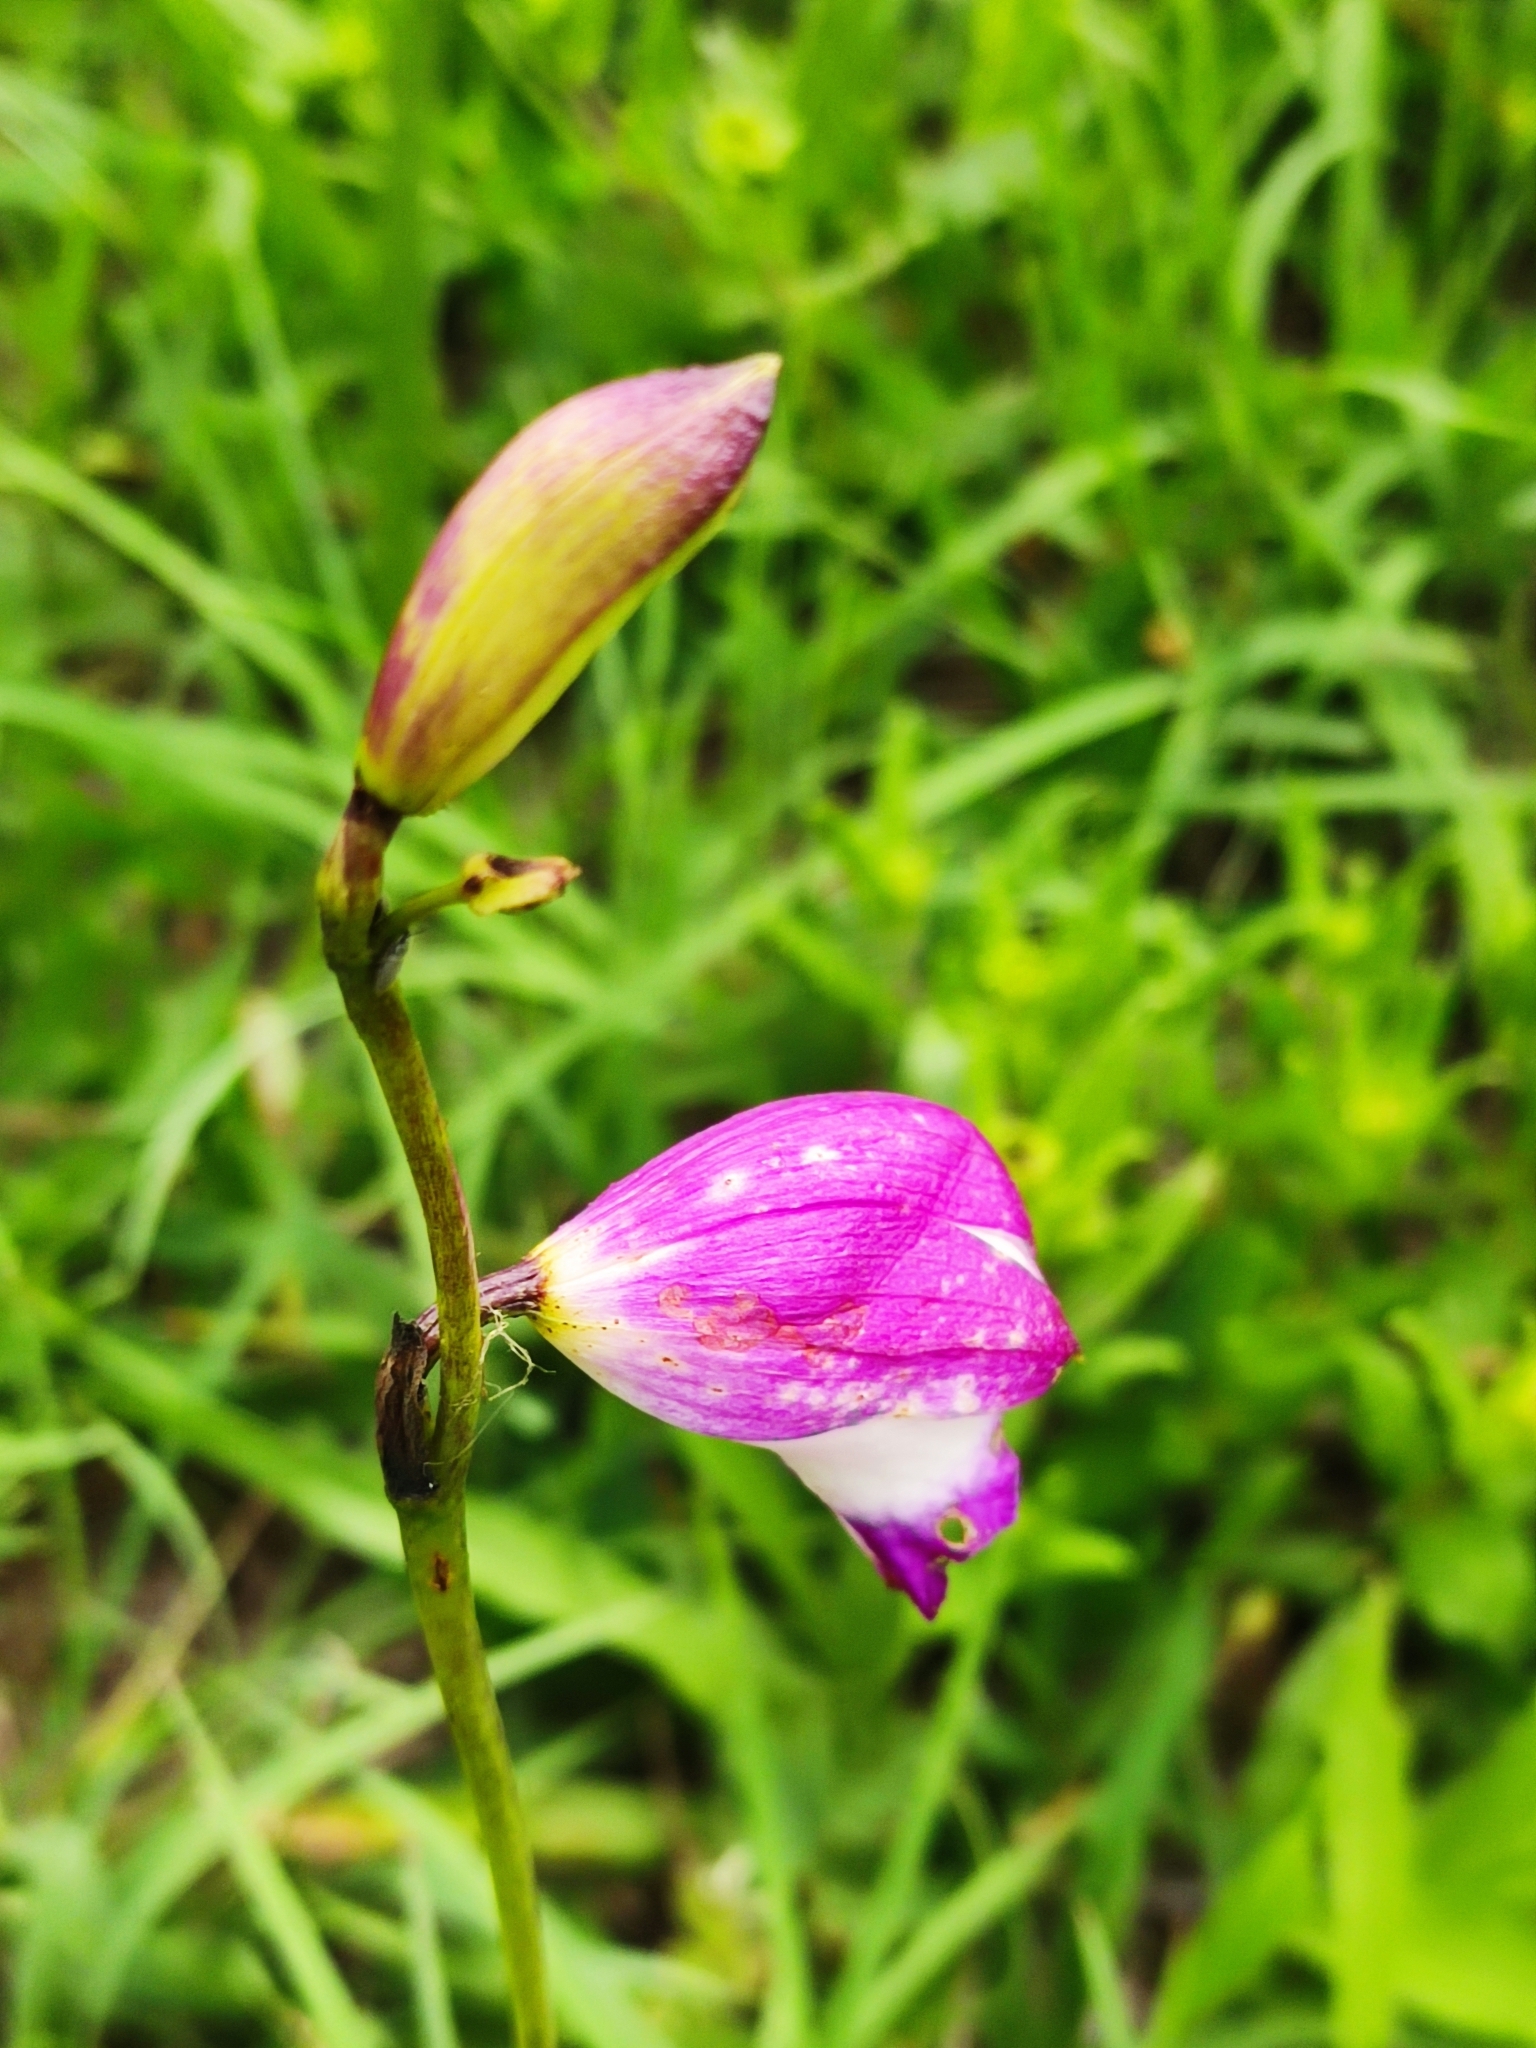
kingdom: Plantae
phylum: Tracheophyta
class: Liliopsida
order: Asparagales
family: Orchidaceae
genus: Bletia
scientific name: Bletia campanulata
